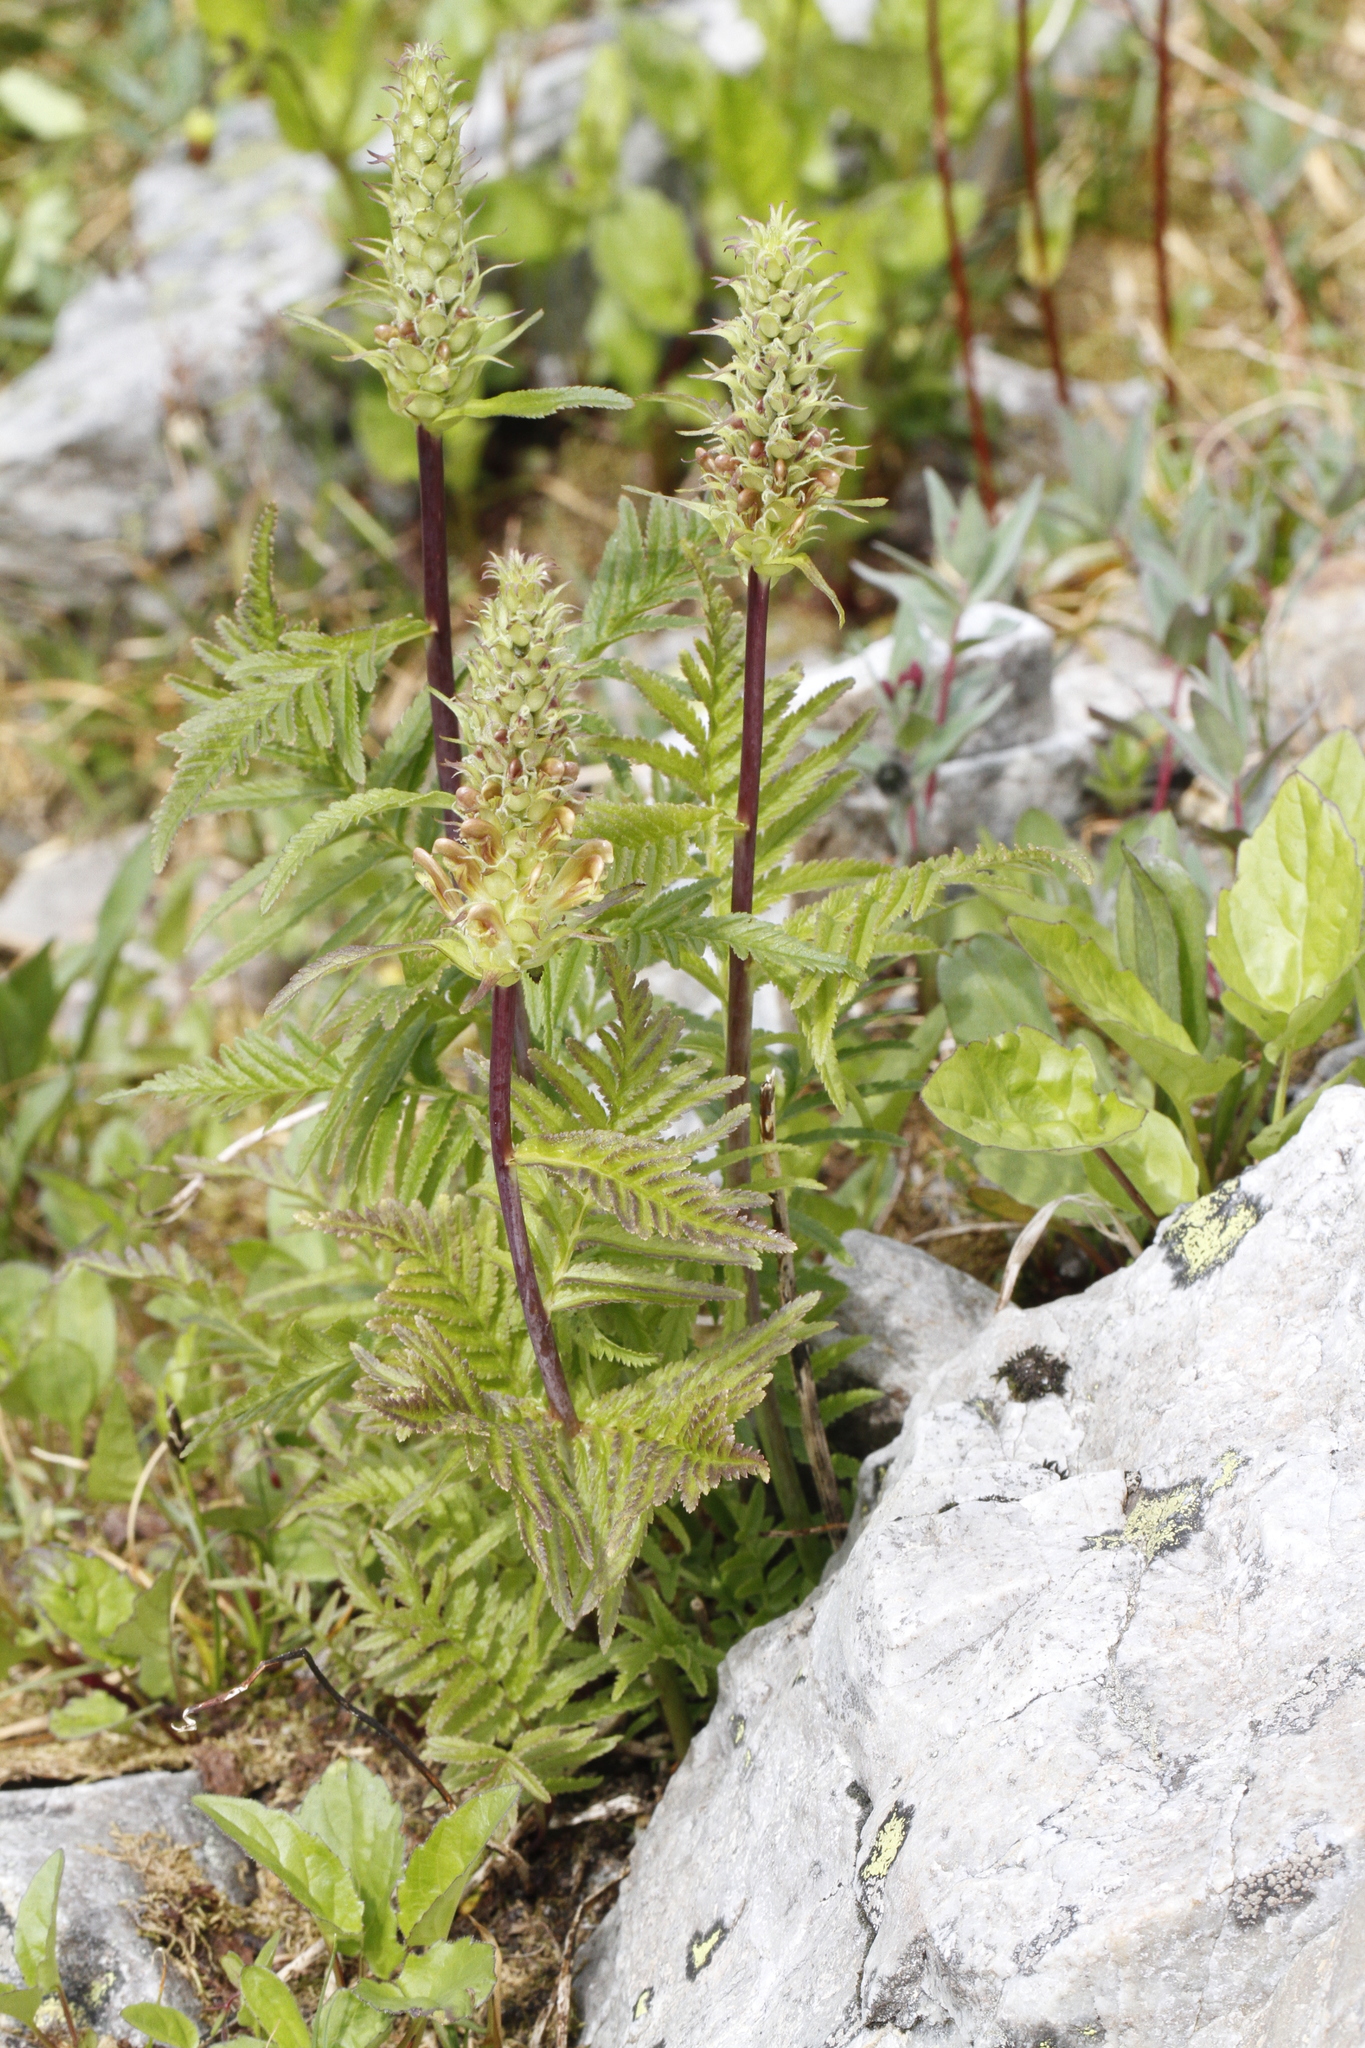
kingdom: Plantae
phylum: Tracheophyta
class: Magnoliopsida
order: Lamiales
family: Orobanchaceae
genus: Pedicularis
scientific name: Pedicularis bracteosa
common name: Bracted lousewort
